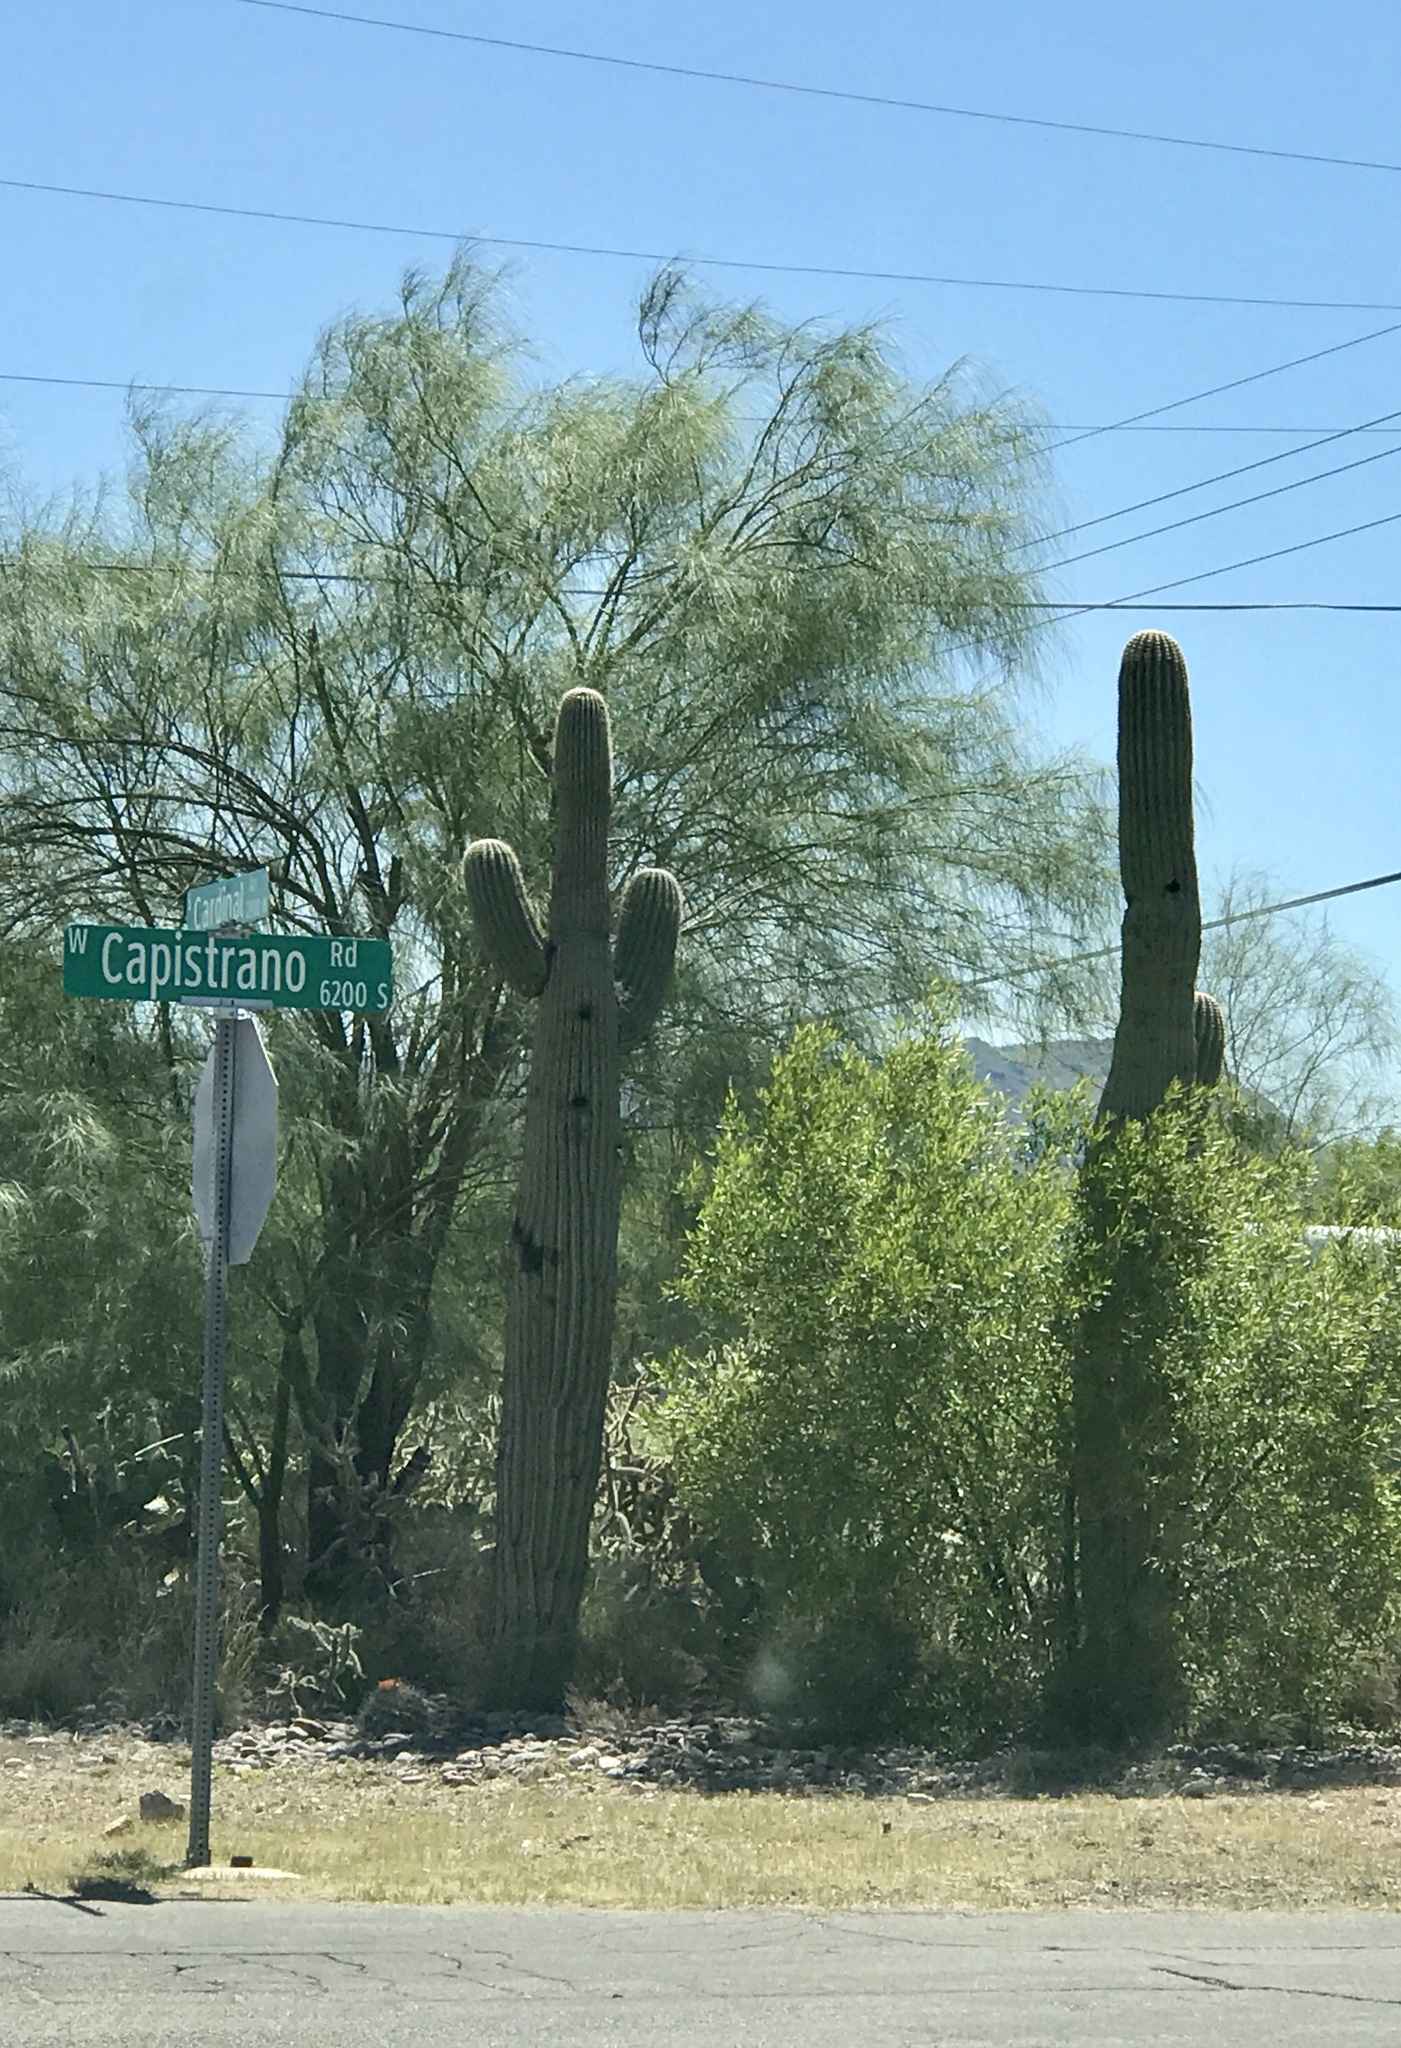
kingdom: Plantae
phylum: Tracheophyta
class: Magnoliopsida
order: Caryophyllales
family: Cactaceae
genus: Carnegiea
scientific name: Carnegiea gigantea
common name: Saguaro
